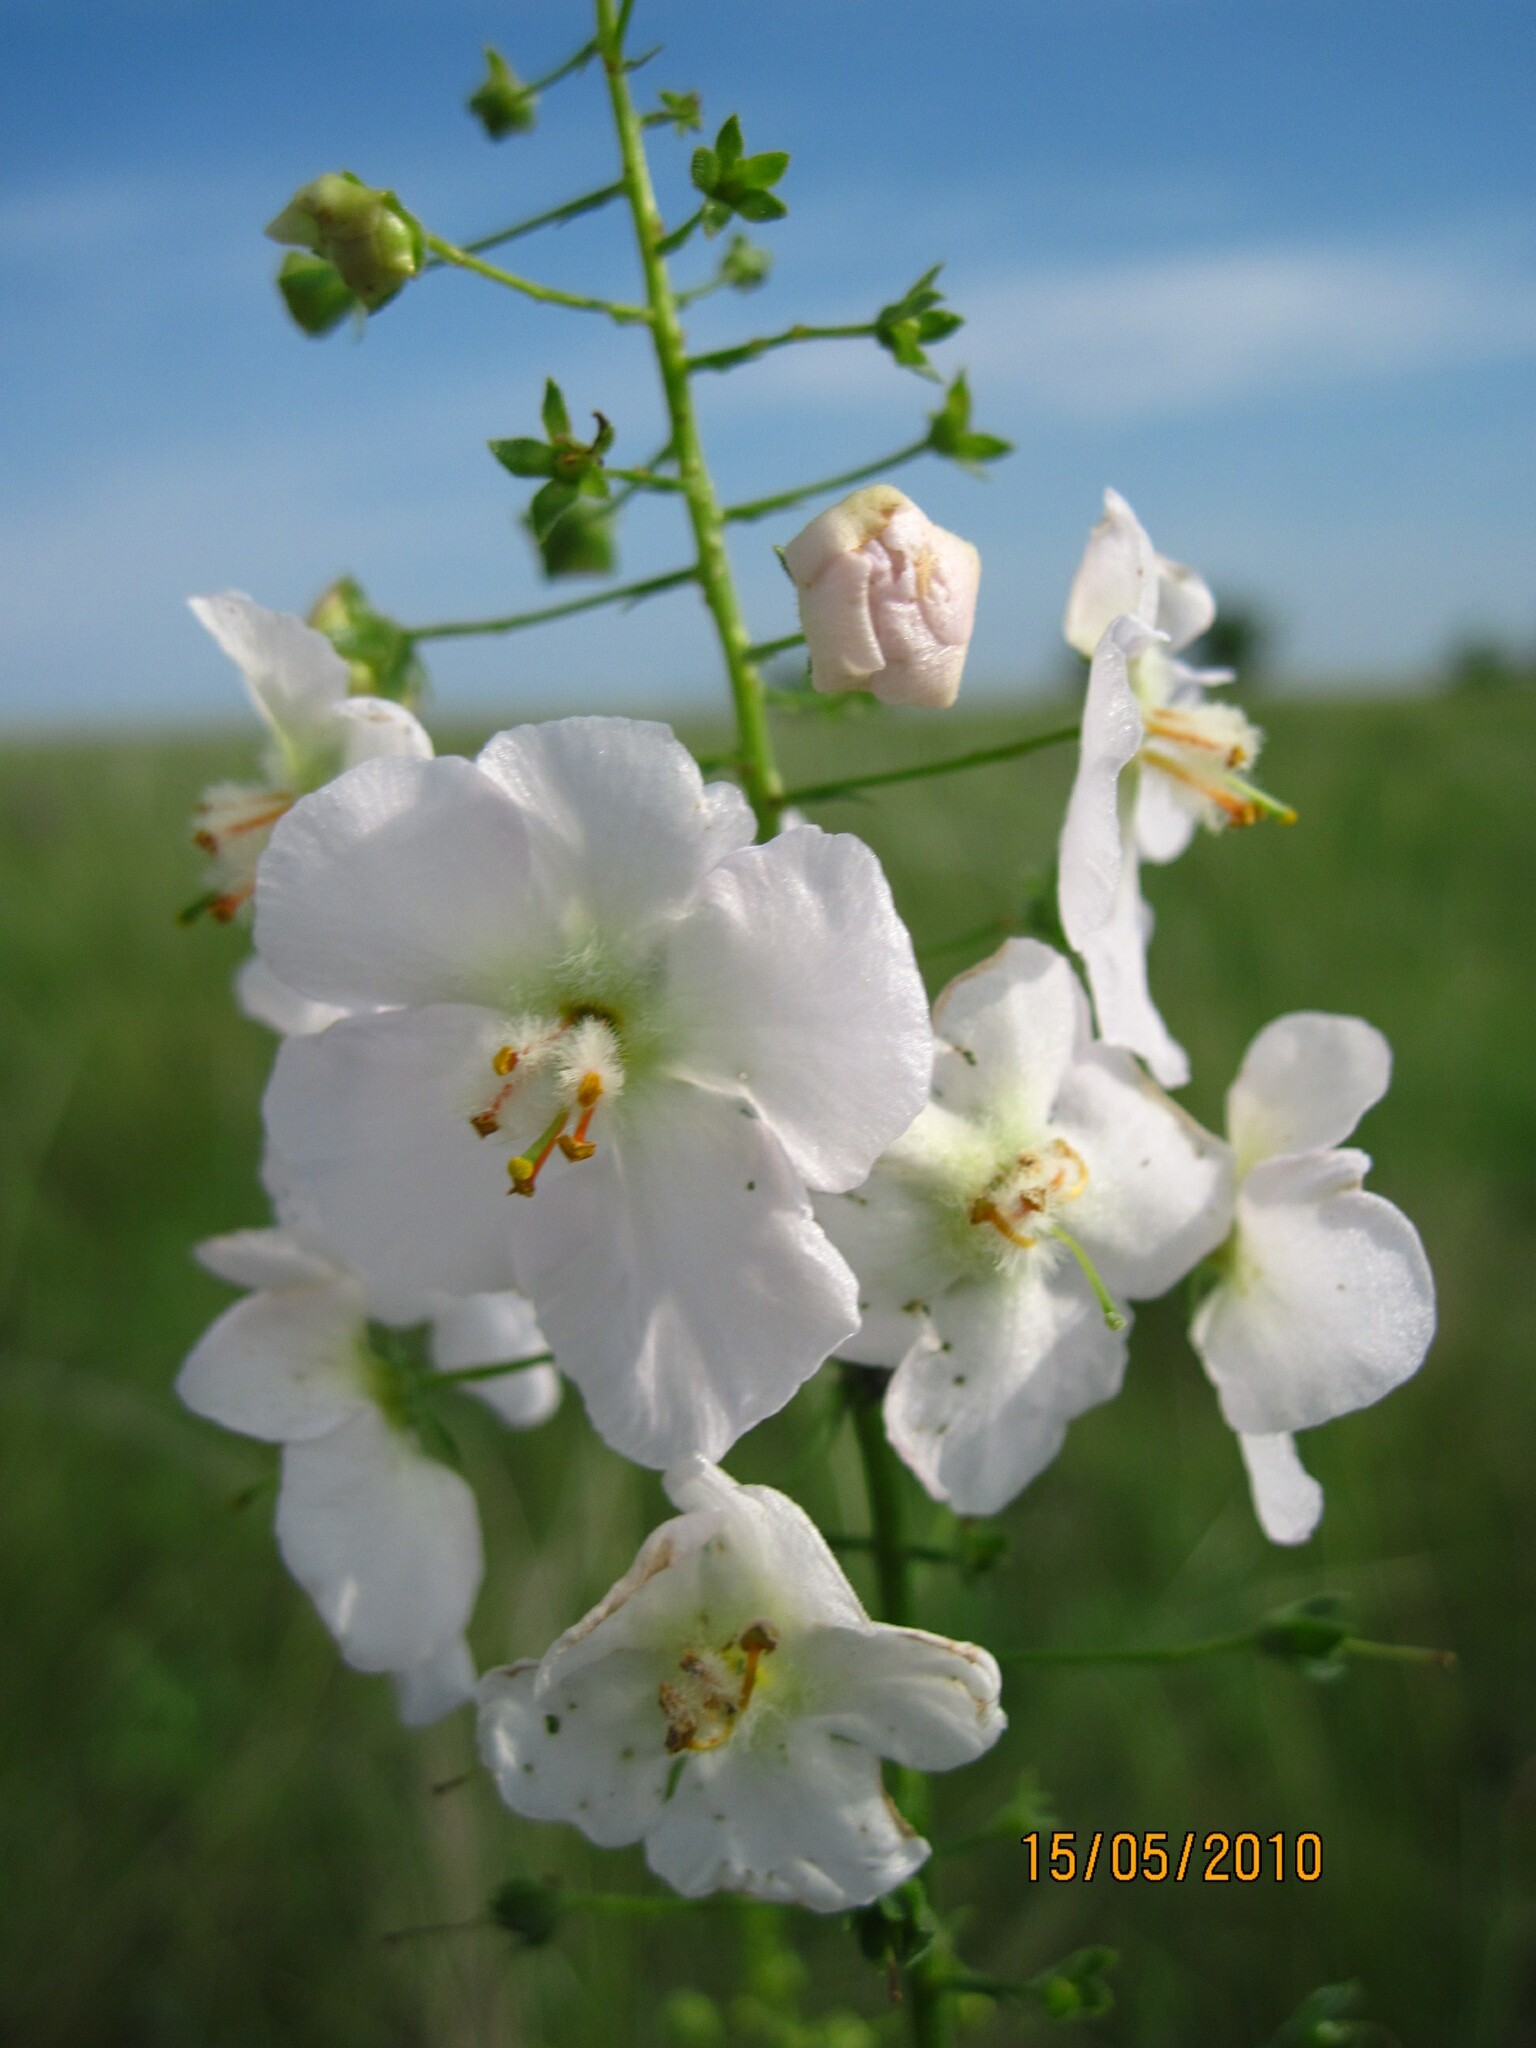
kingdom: Plantae
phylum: Tracheophyta
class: Magnoliopsida
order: Lamiales
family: Scrophulariaceae
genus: Verbascum
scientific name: Verbascum phoeniceum
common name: Purple mullein
